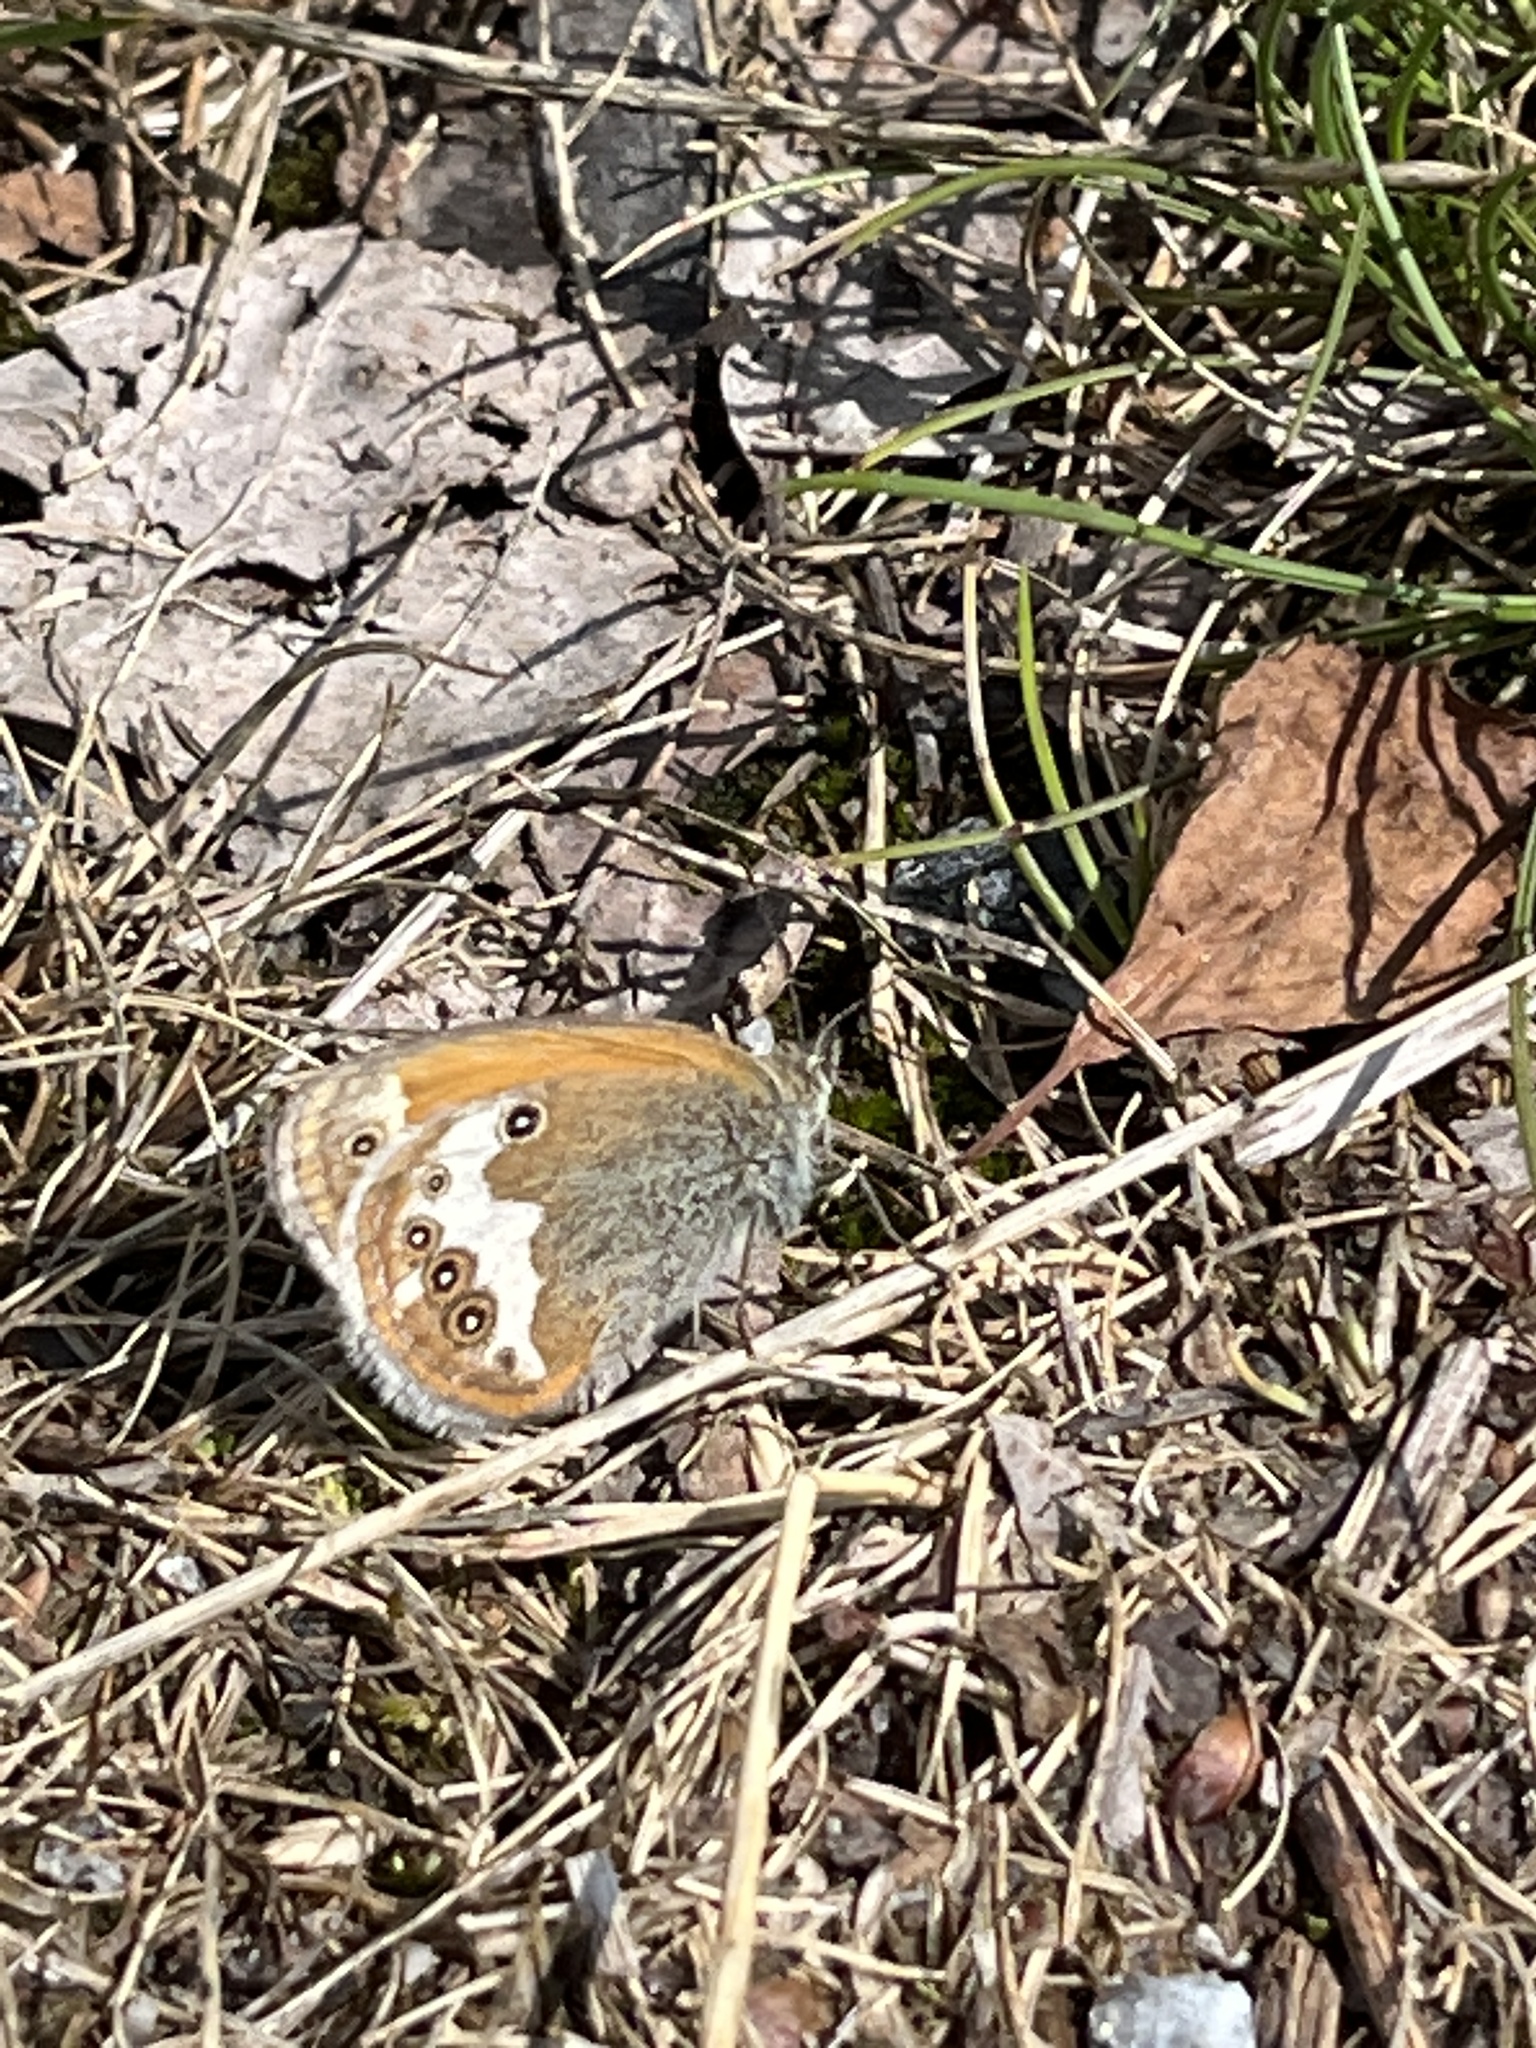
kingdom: Animalia
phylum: Arthropoda
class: Insecta
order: Lepidoptera
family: Nymphalidae
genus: Coenonympha
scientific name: Coenonympha arcania
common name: Pearly heath
